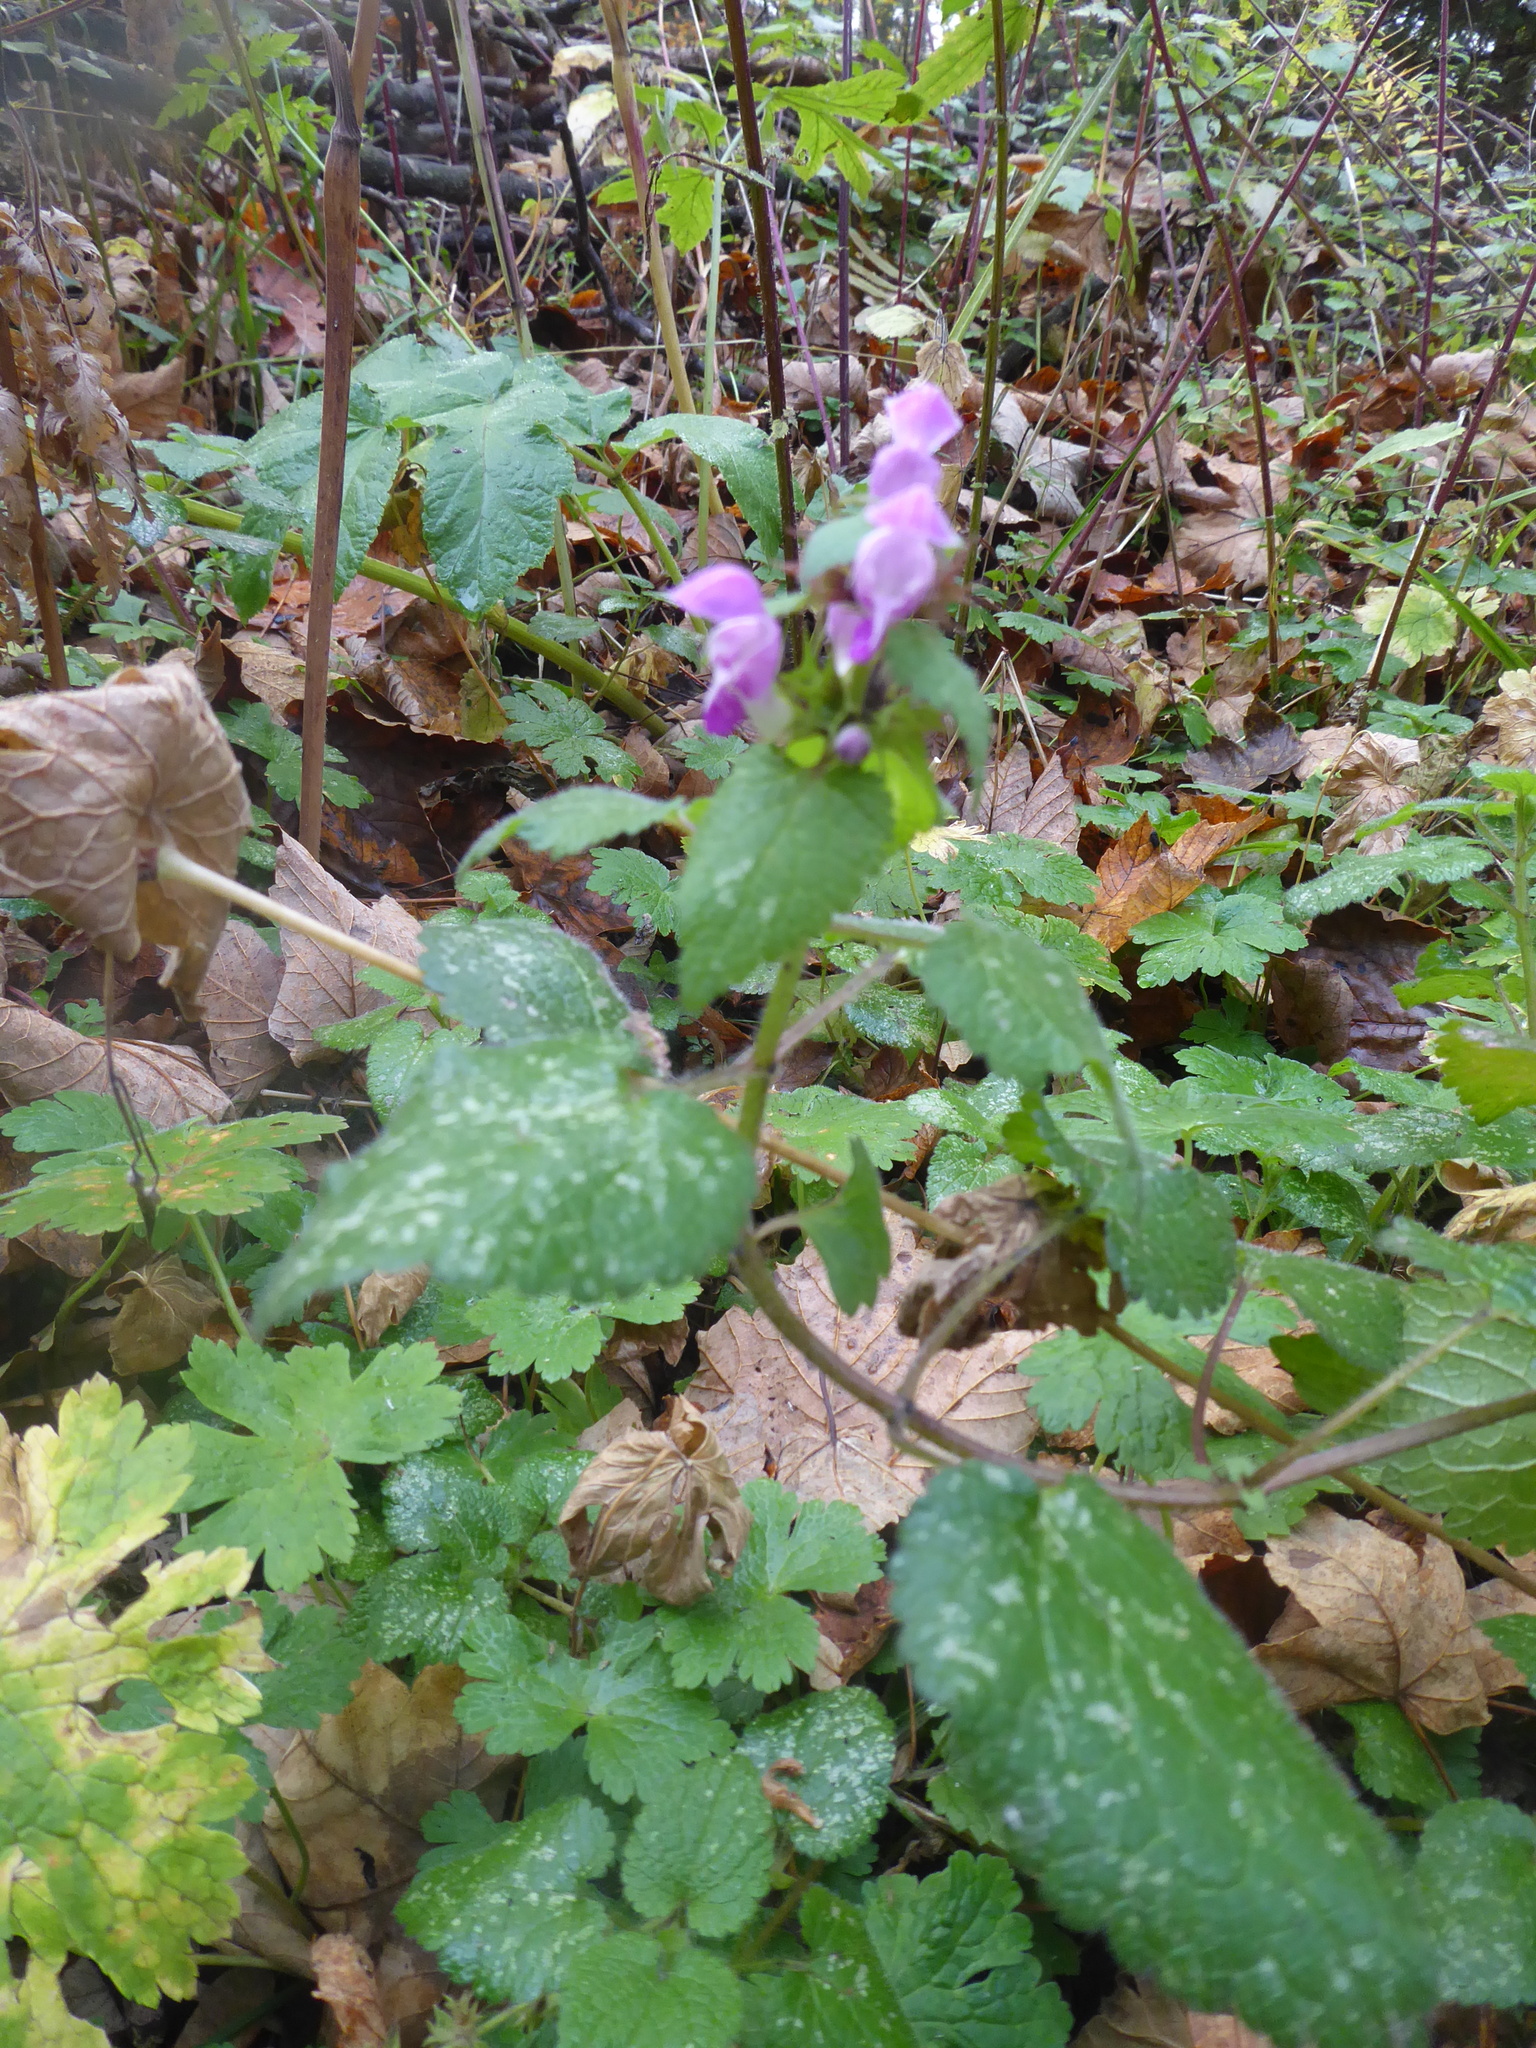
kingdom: Plantae
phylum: Tracheophyta
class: Magnoliopsida
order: Lamiales
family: Lamiaceae
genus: Lamium
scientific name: Lamium maculatum
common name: Spotted dead-nettle
